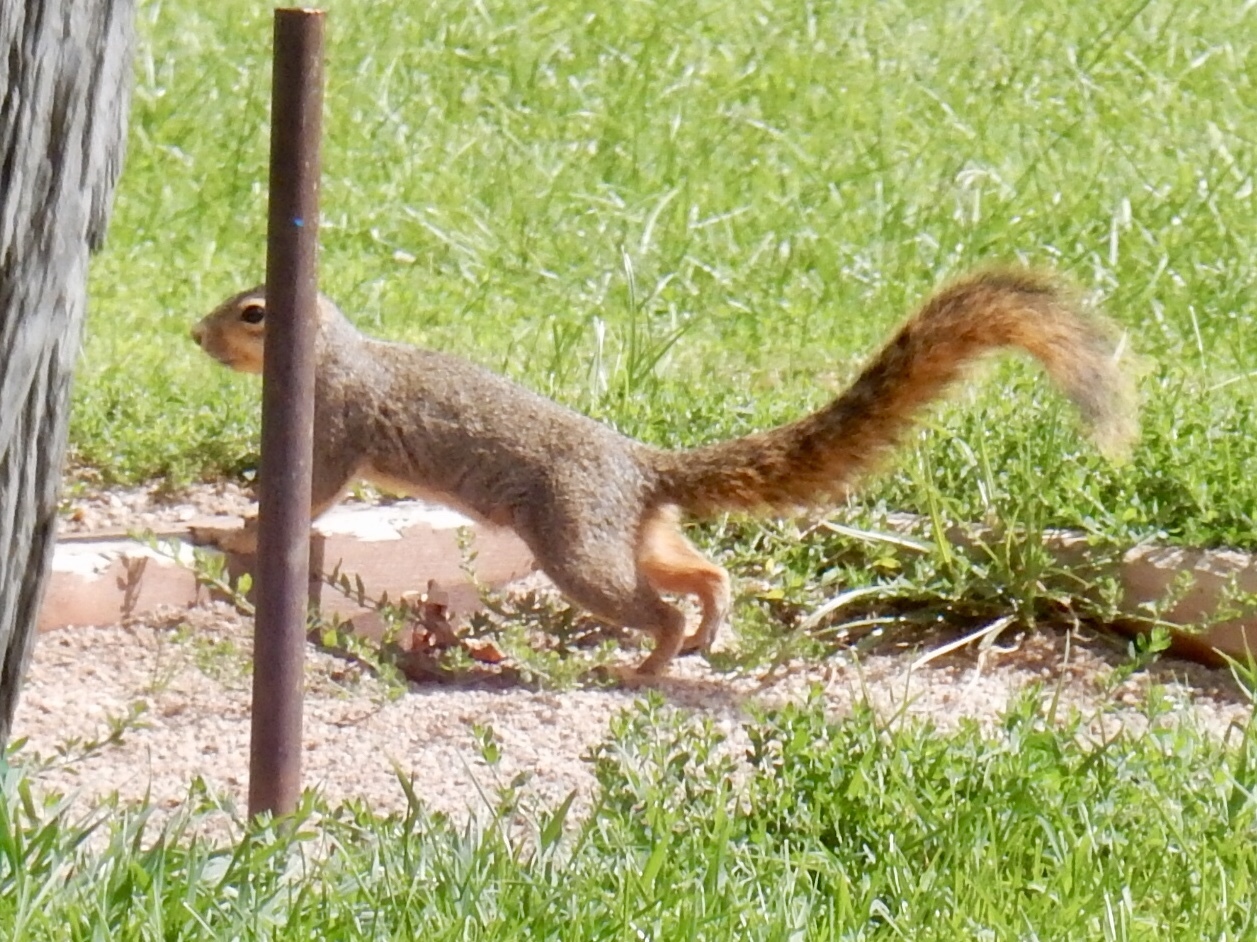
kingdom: Animalia
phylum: Chordata
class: Mammalia
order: Rodentia
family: Sciuridae
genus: Sciurus
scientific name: Sciurus niger
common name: Fox squirrel
